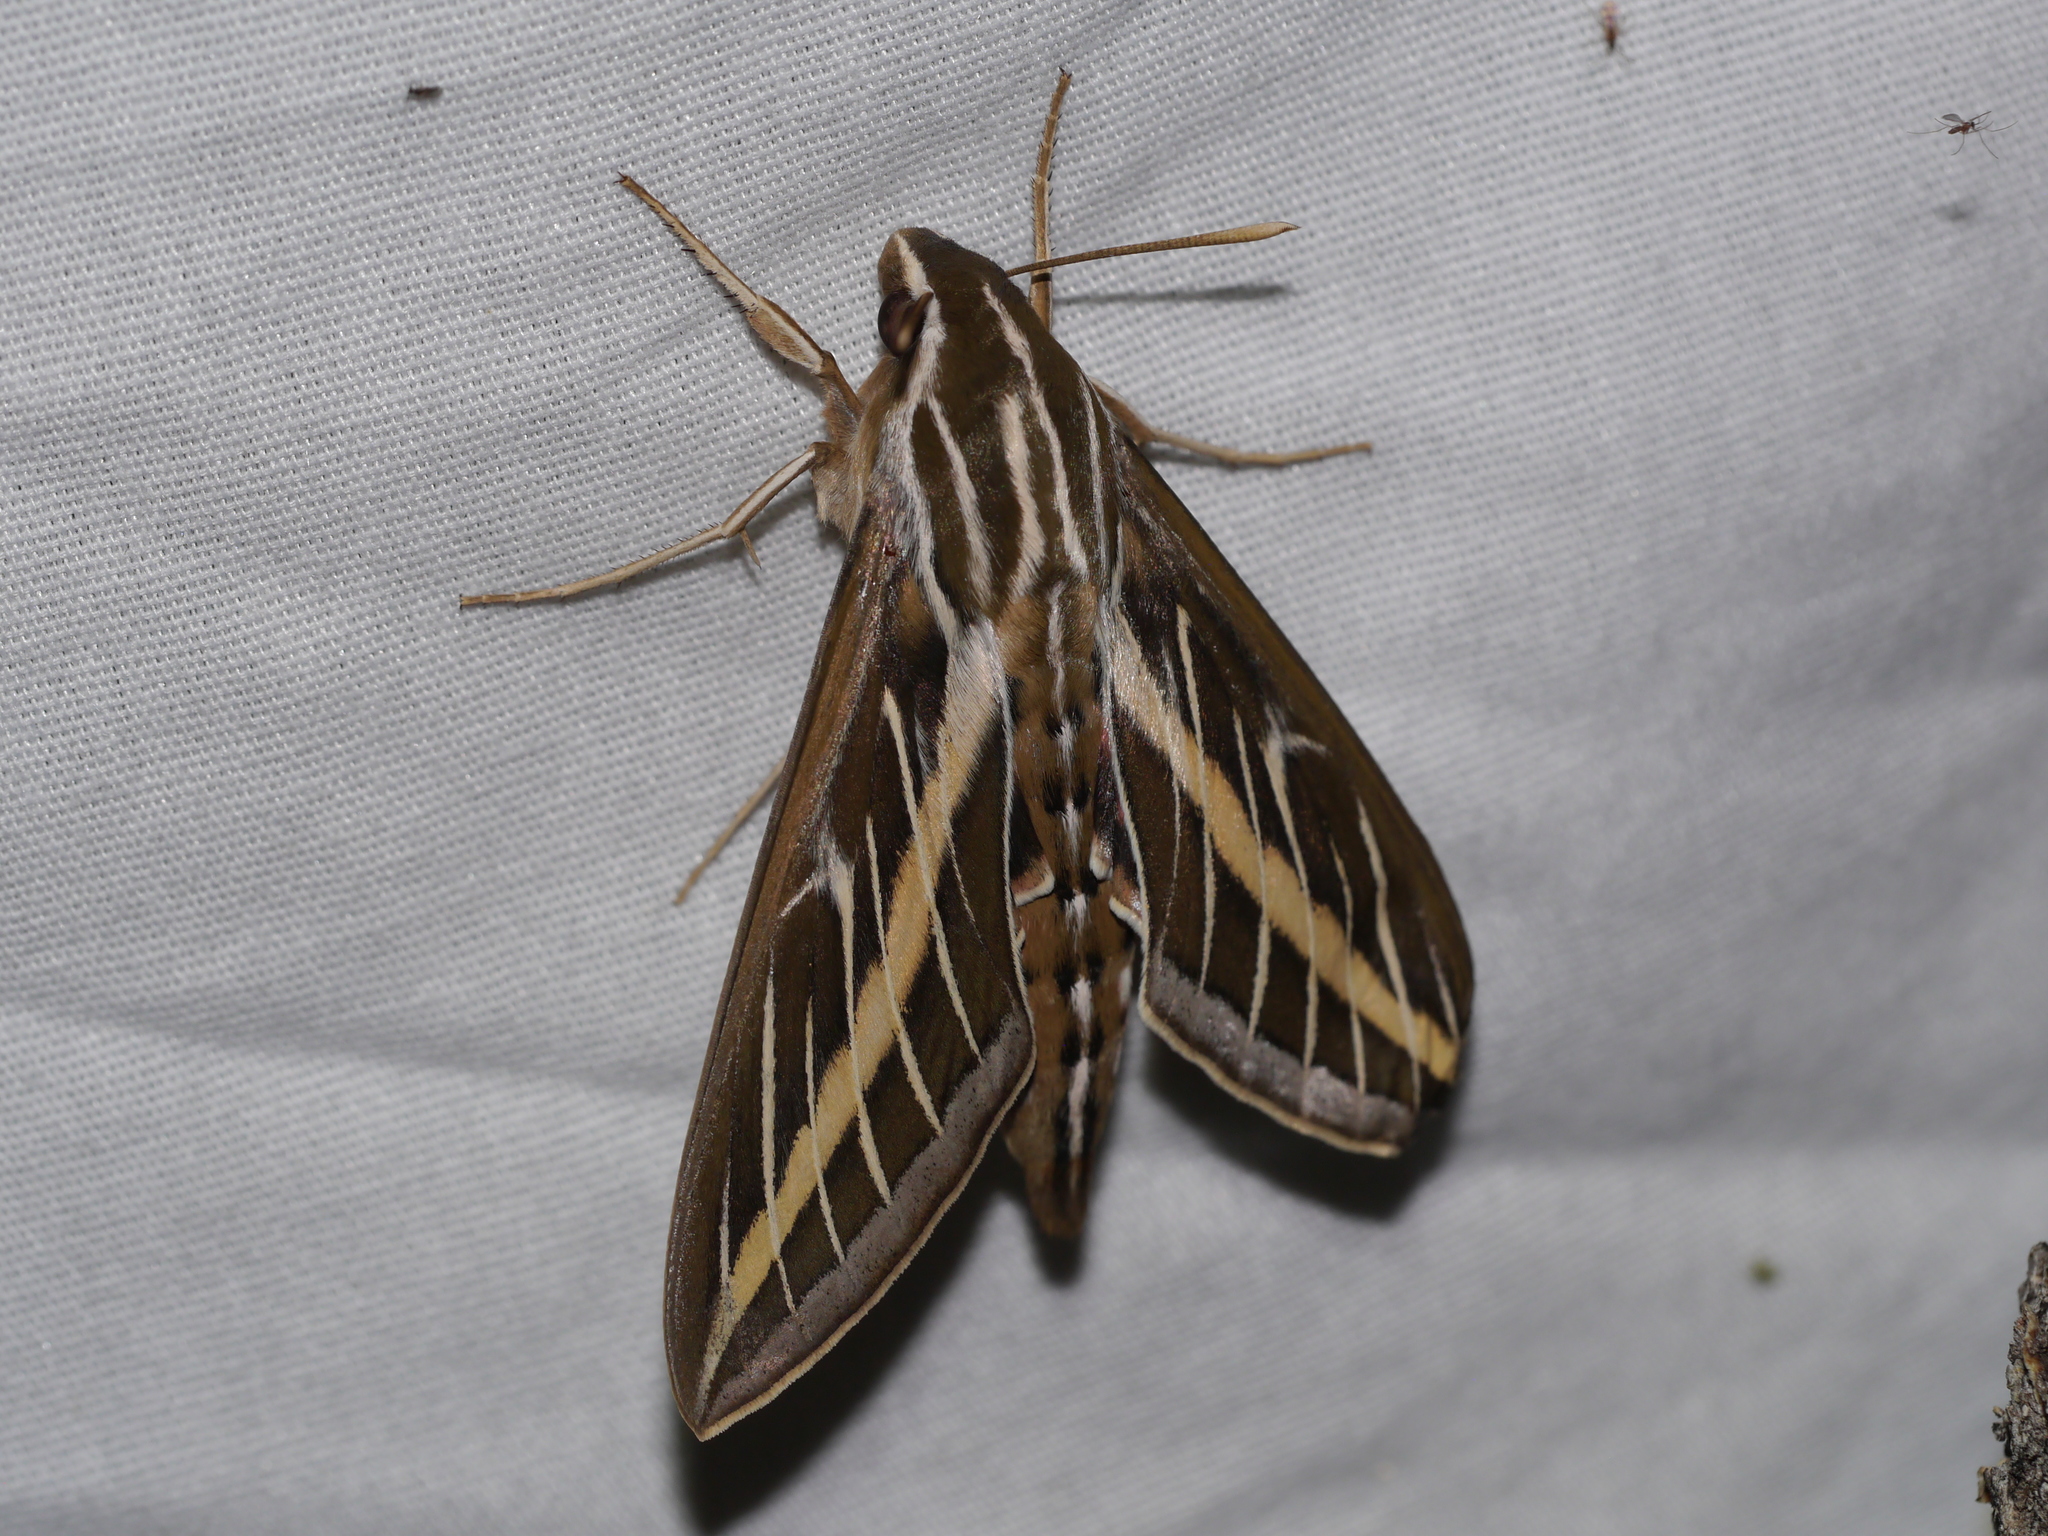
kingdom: Animalia
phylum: Arthropoda
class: Insecta
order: Lepidoptera
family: Sphingidae
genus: Hyles
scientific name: Hyles lineata
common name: White-lined sphinx
